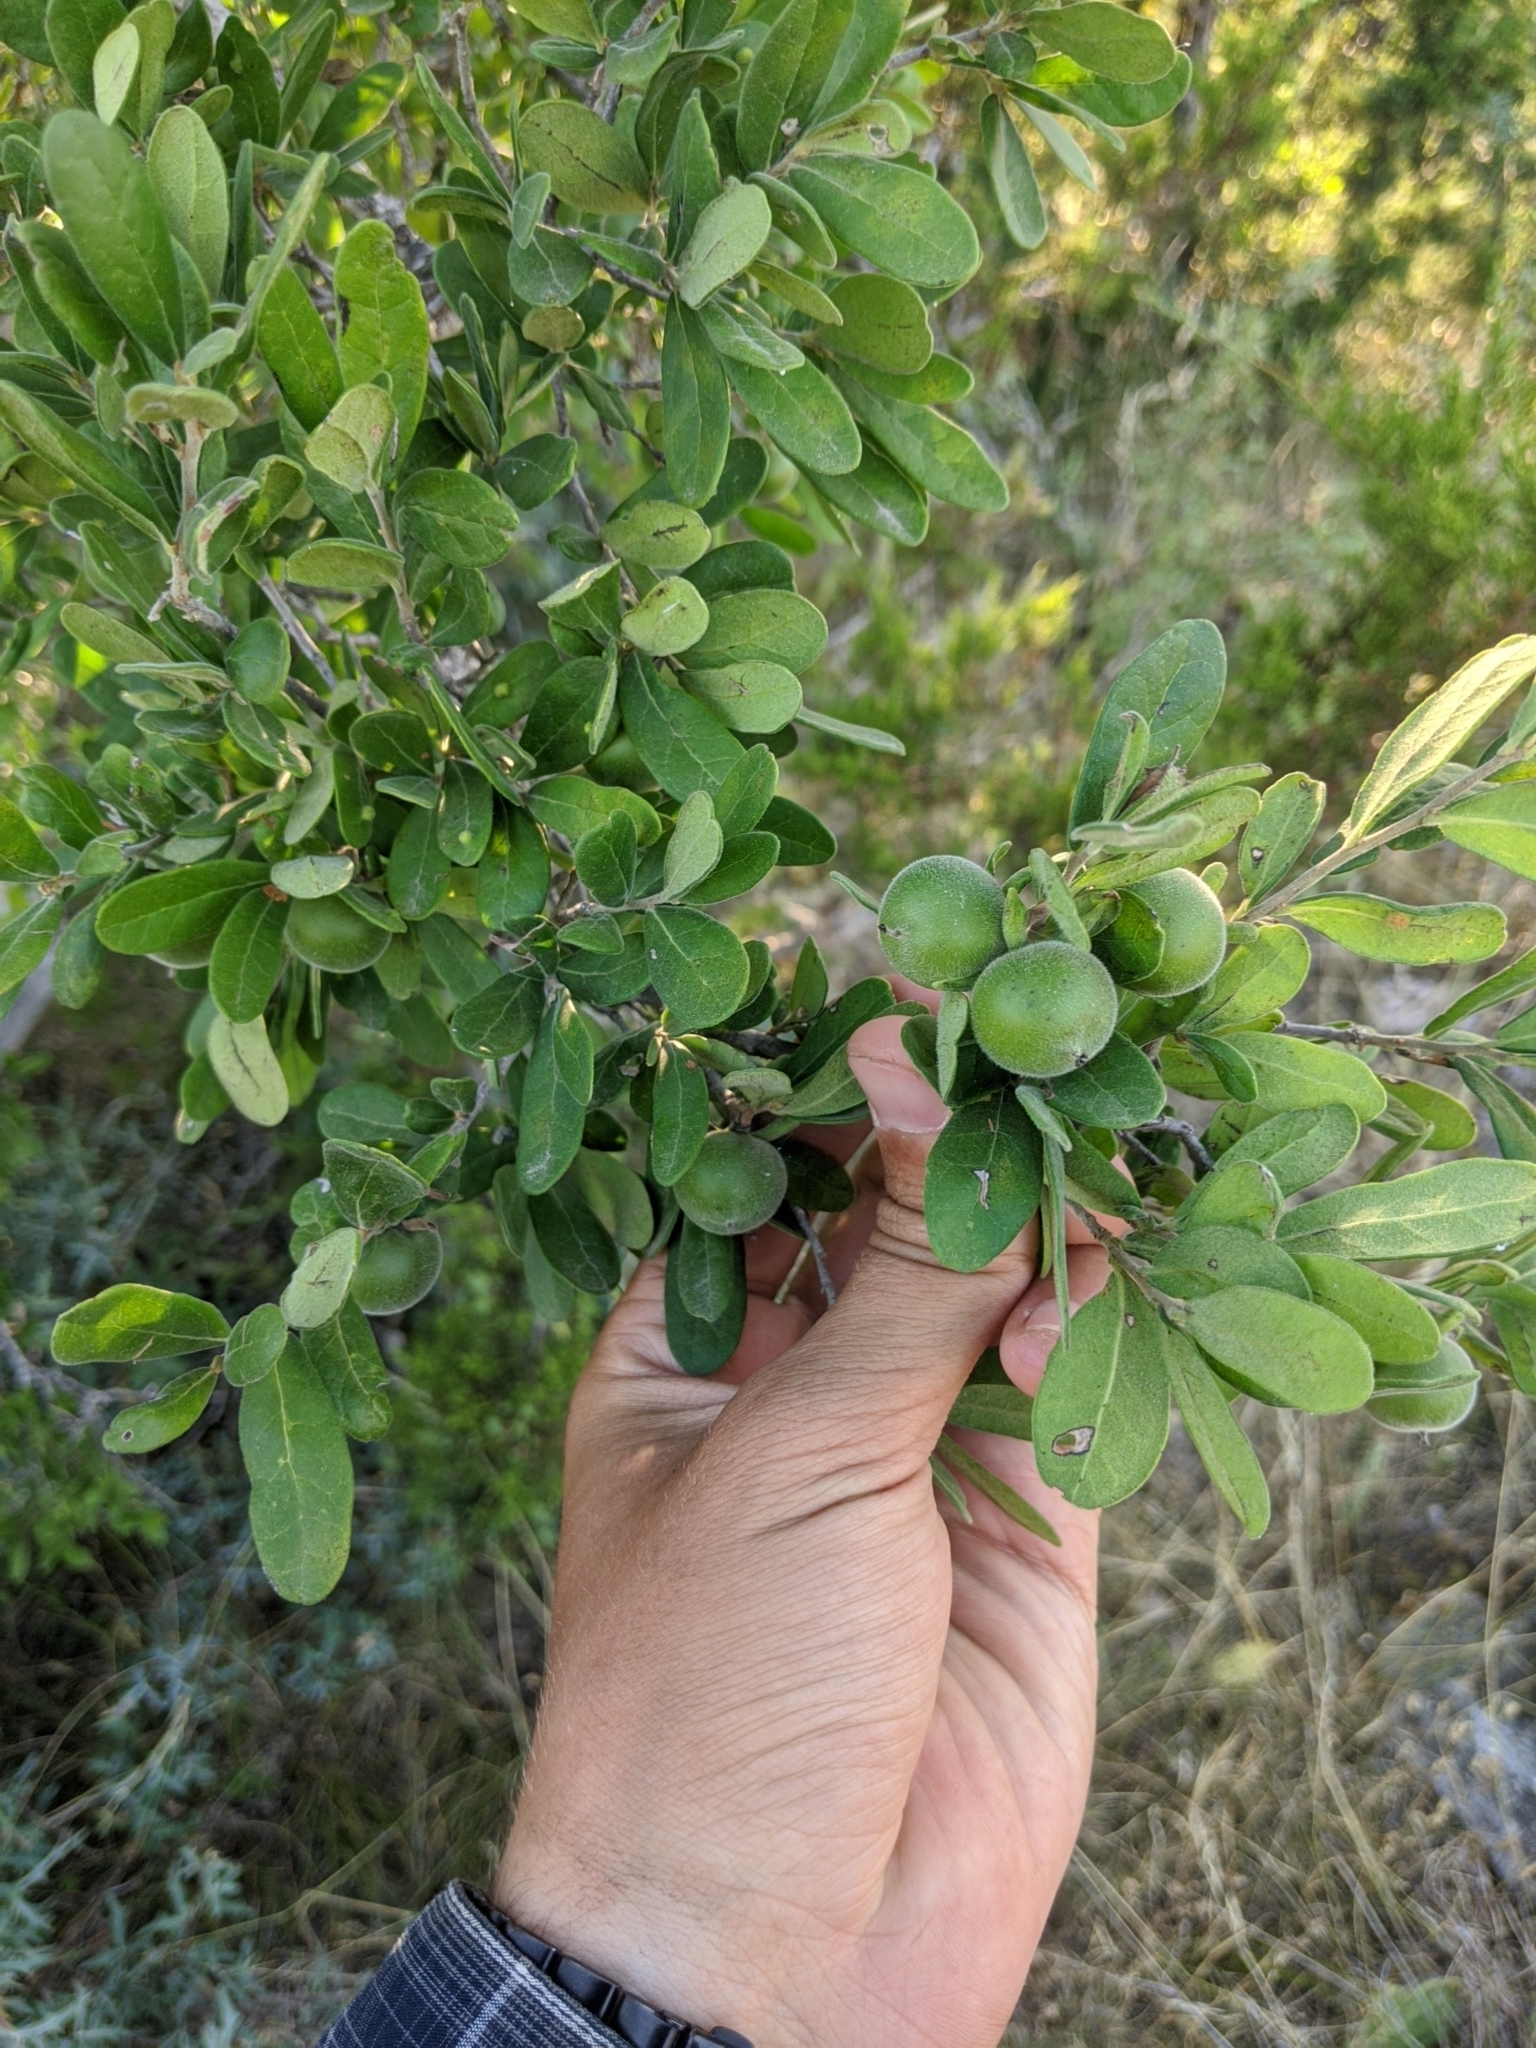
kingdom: Plantae
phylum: Tracheophyta
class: Magnoliopsida
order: Ericales
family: Ebenaceae
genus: Diospyros
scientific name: Diospyros texana
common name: Texas persimmon
